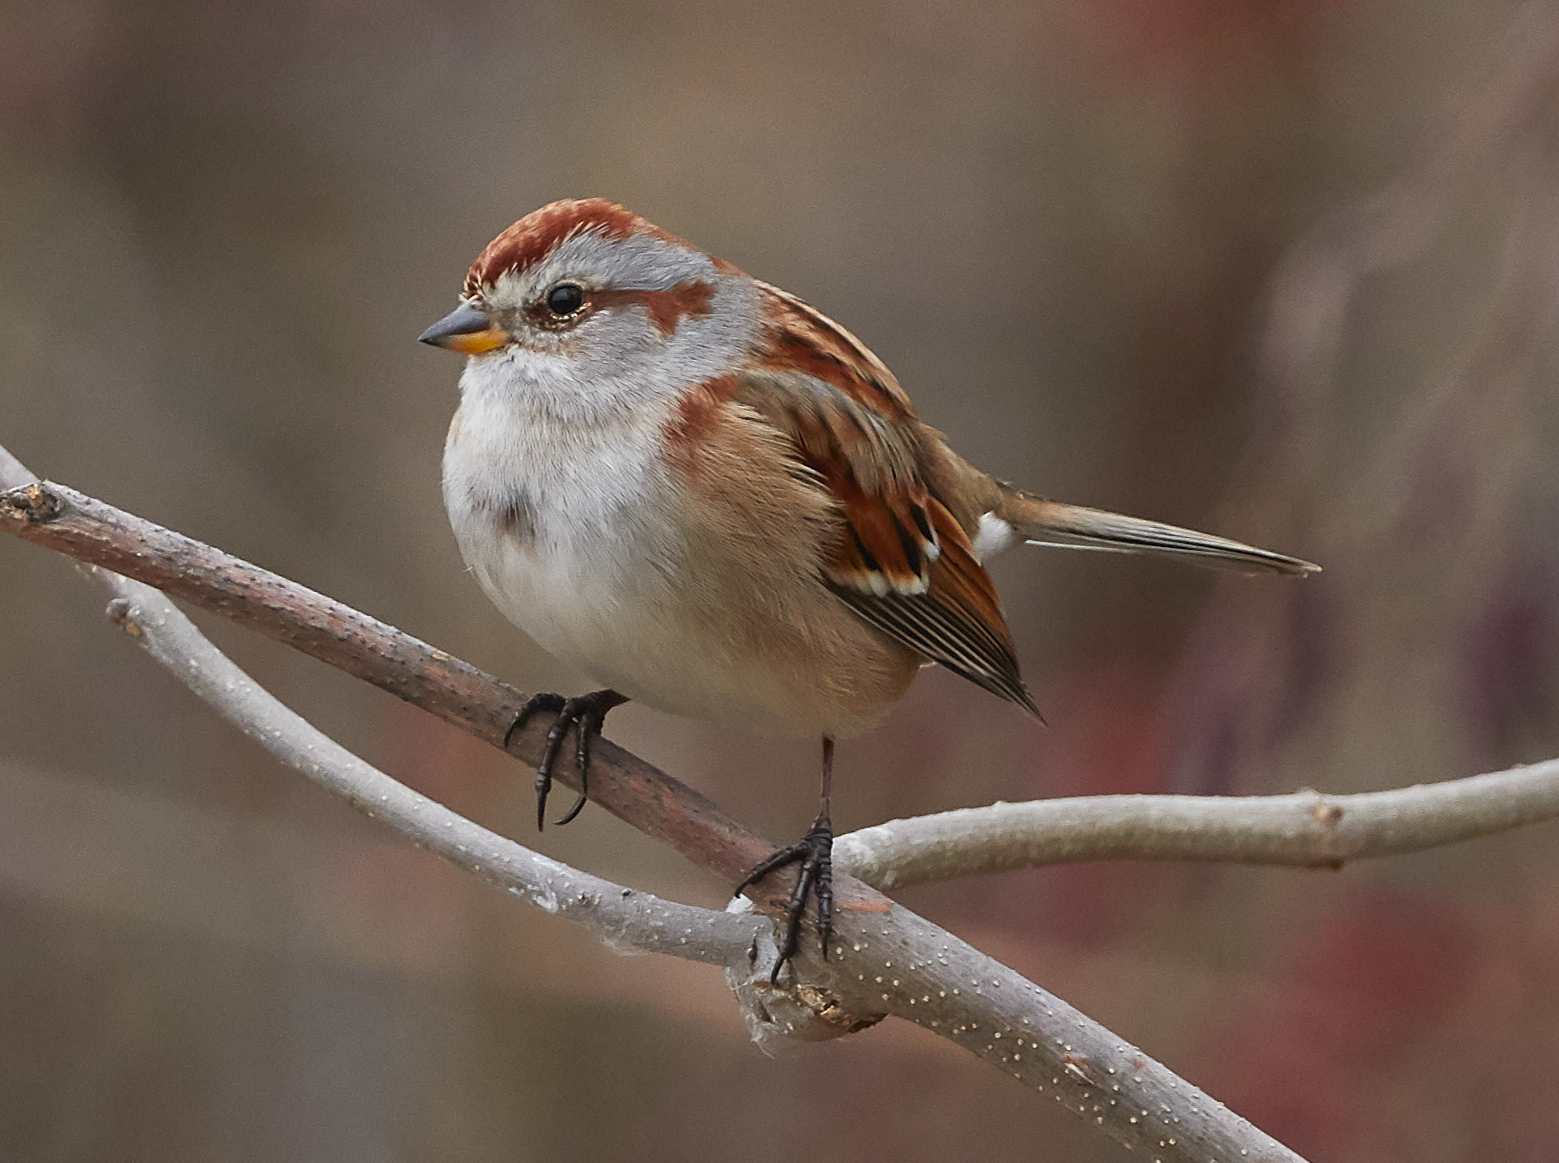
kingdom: Animalia
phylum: Chordata
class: Aves
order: Passeriformes
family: Passerellidae
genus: Spizelloides
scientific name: Spizelloides arborea
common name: American tree sparrow
